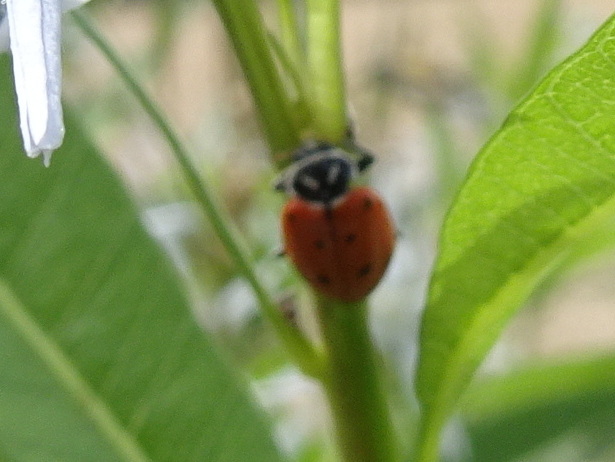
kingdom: Animalia
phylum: Arthropoda
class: Insecta
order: Coleoptera
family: Coccinellidae
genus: Hippodamia
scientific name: Hippodamia convergens
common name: Convergent lady beetle
